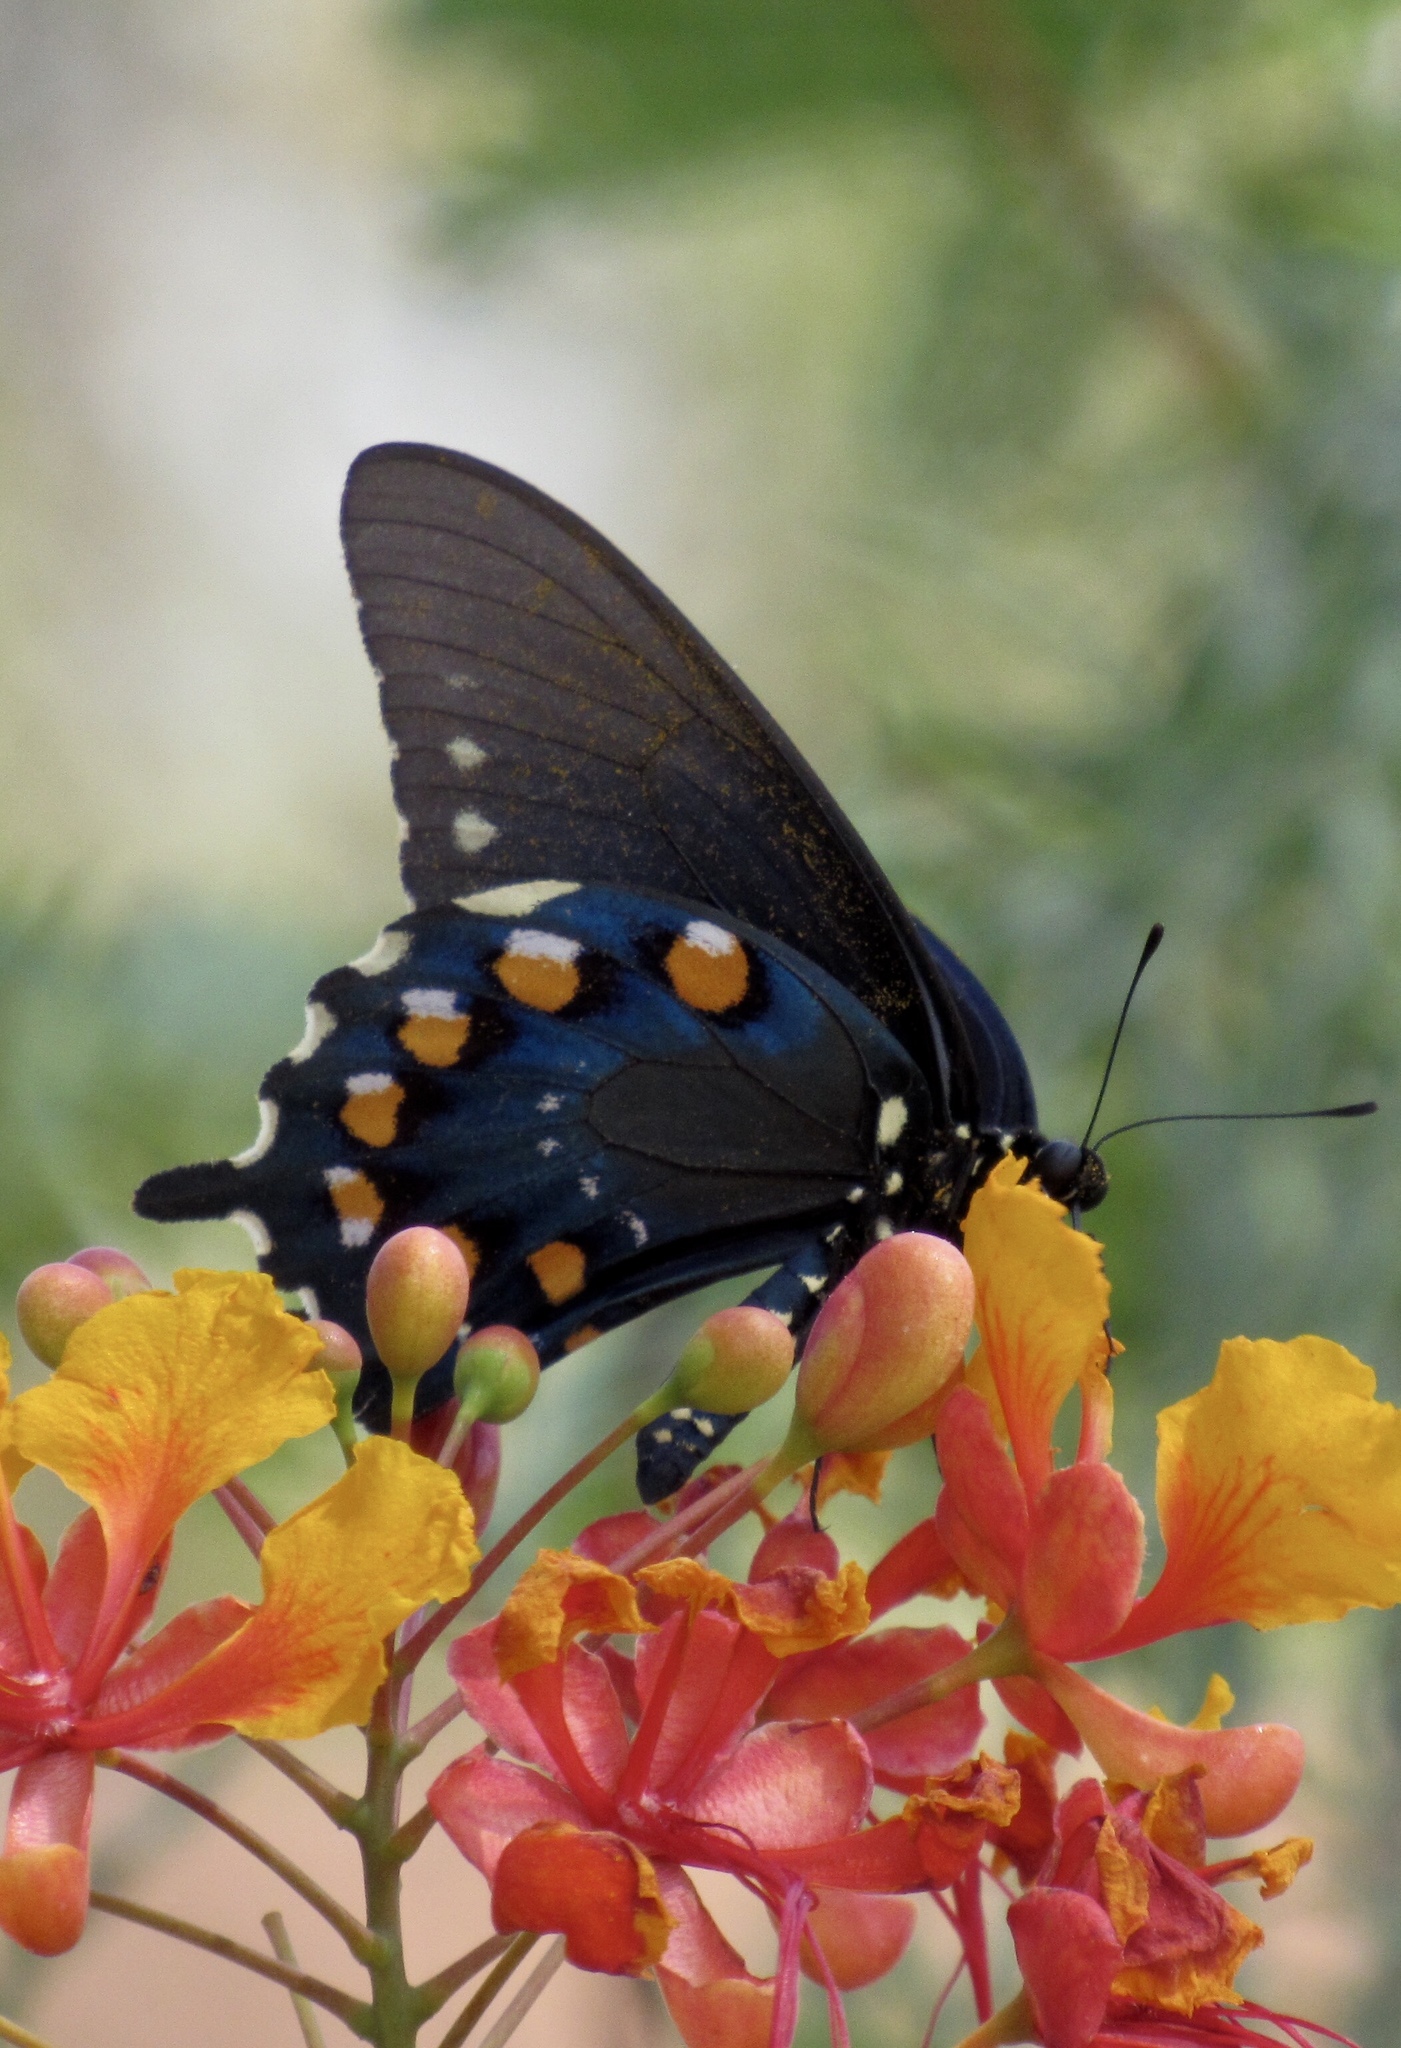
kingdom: Animalia
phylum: Arthropoda
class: Insecta
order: Lepidoptera
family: Papilionidae
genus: Battus
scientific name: Battus philenor
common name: Pipevine swallowtail
